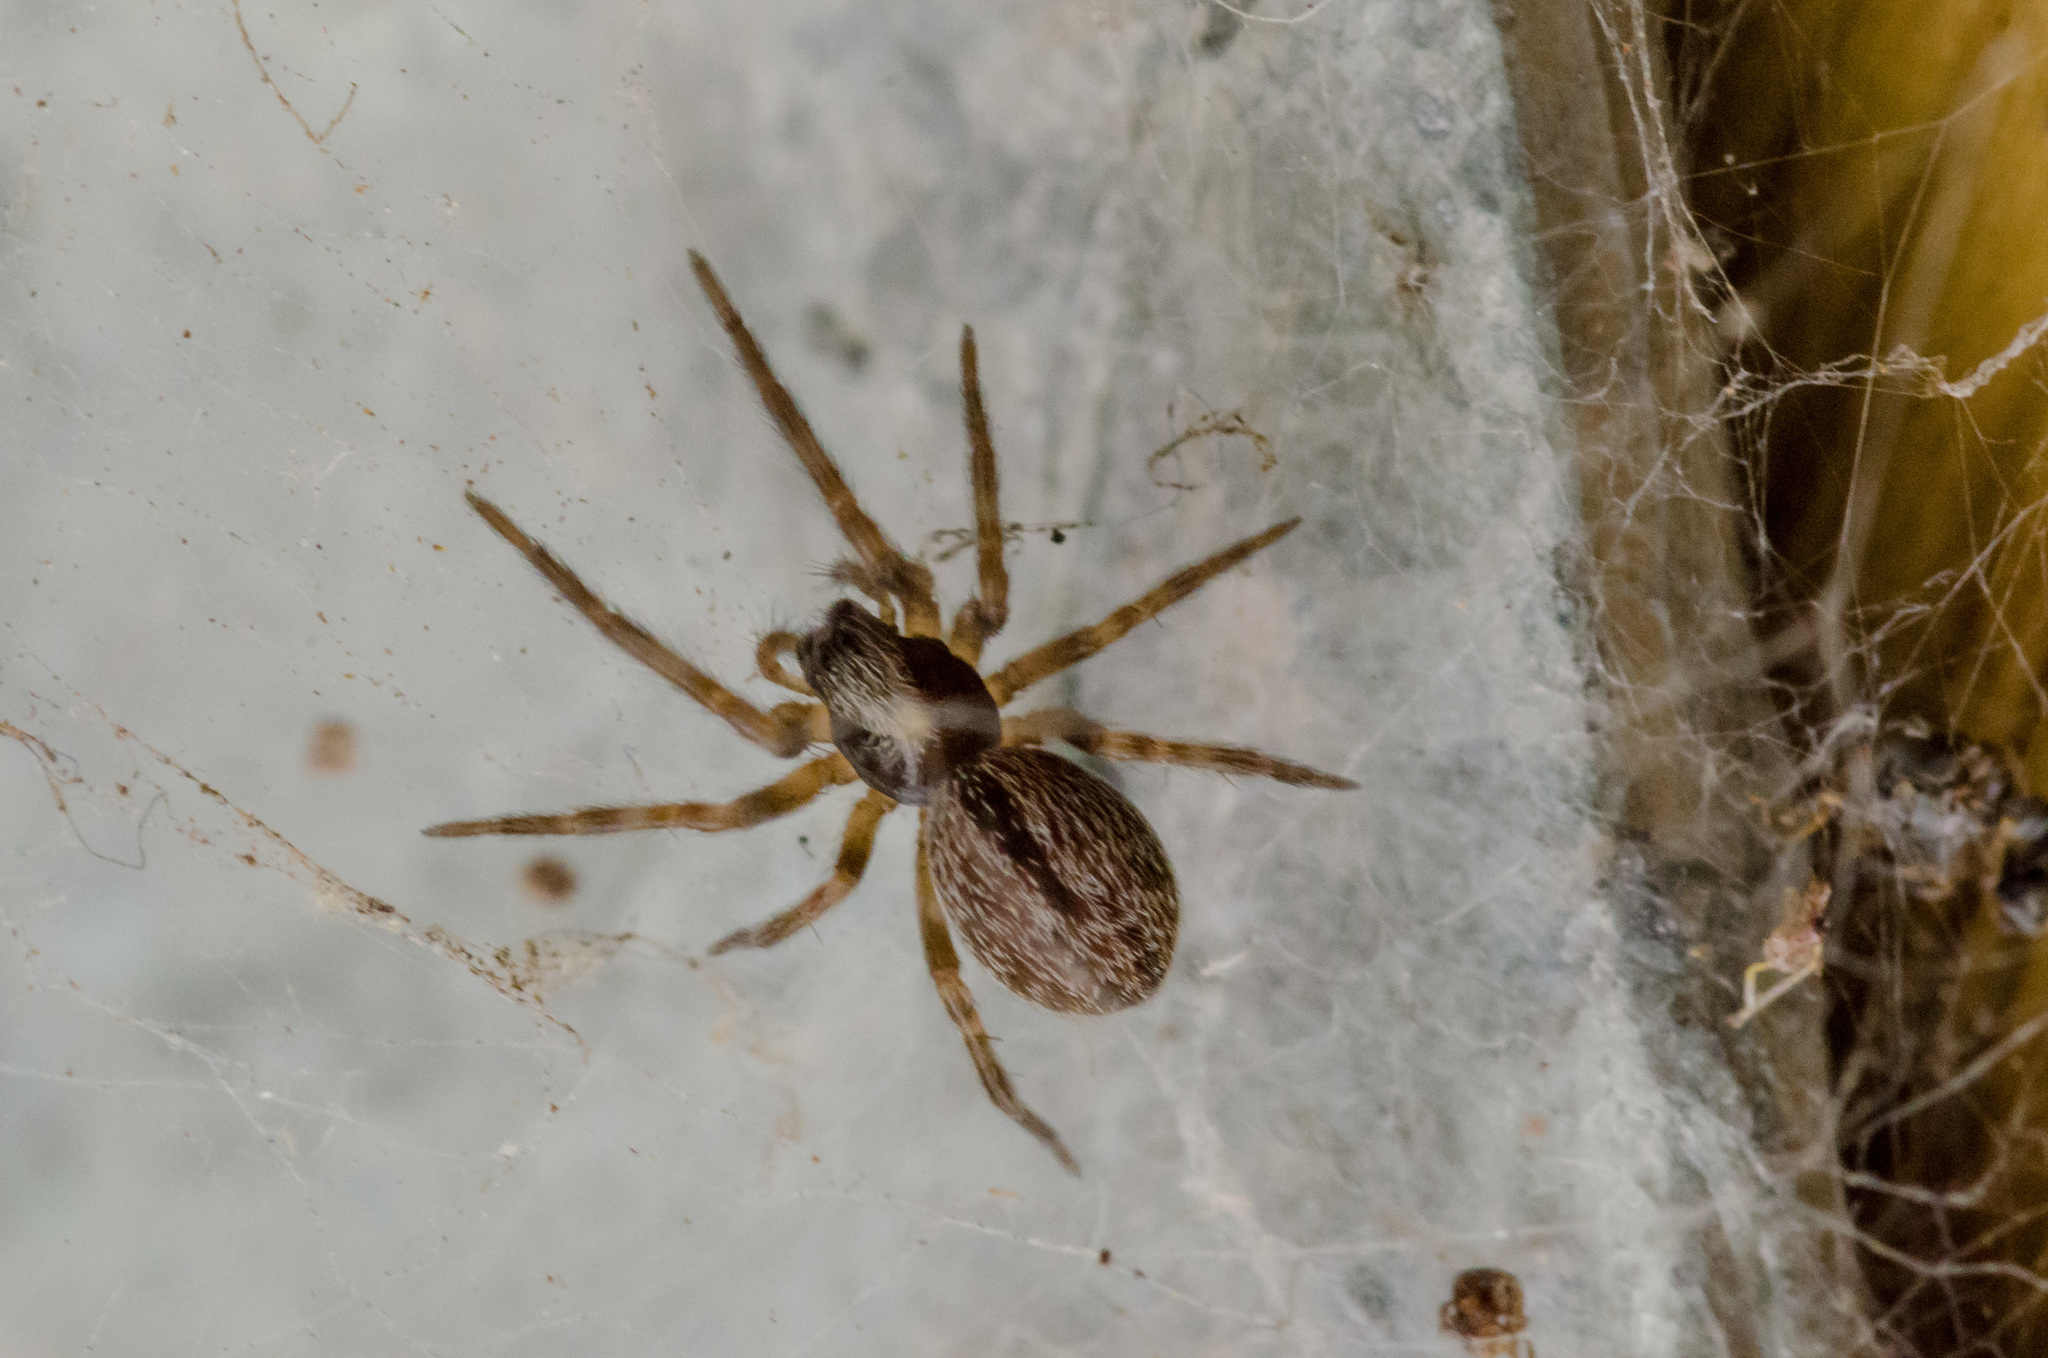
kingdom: Animalia
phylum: Arthropoda
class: Arachnida
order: Araneae
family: Desidae
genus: Badumna
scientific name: Badumna longinqua
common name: Gray house spider
